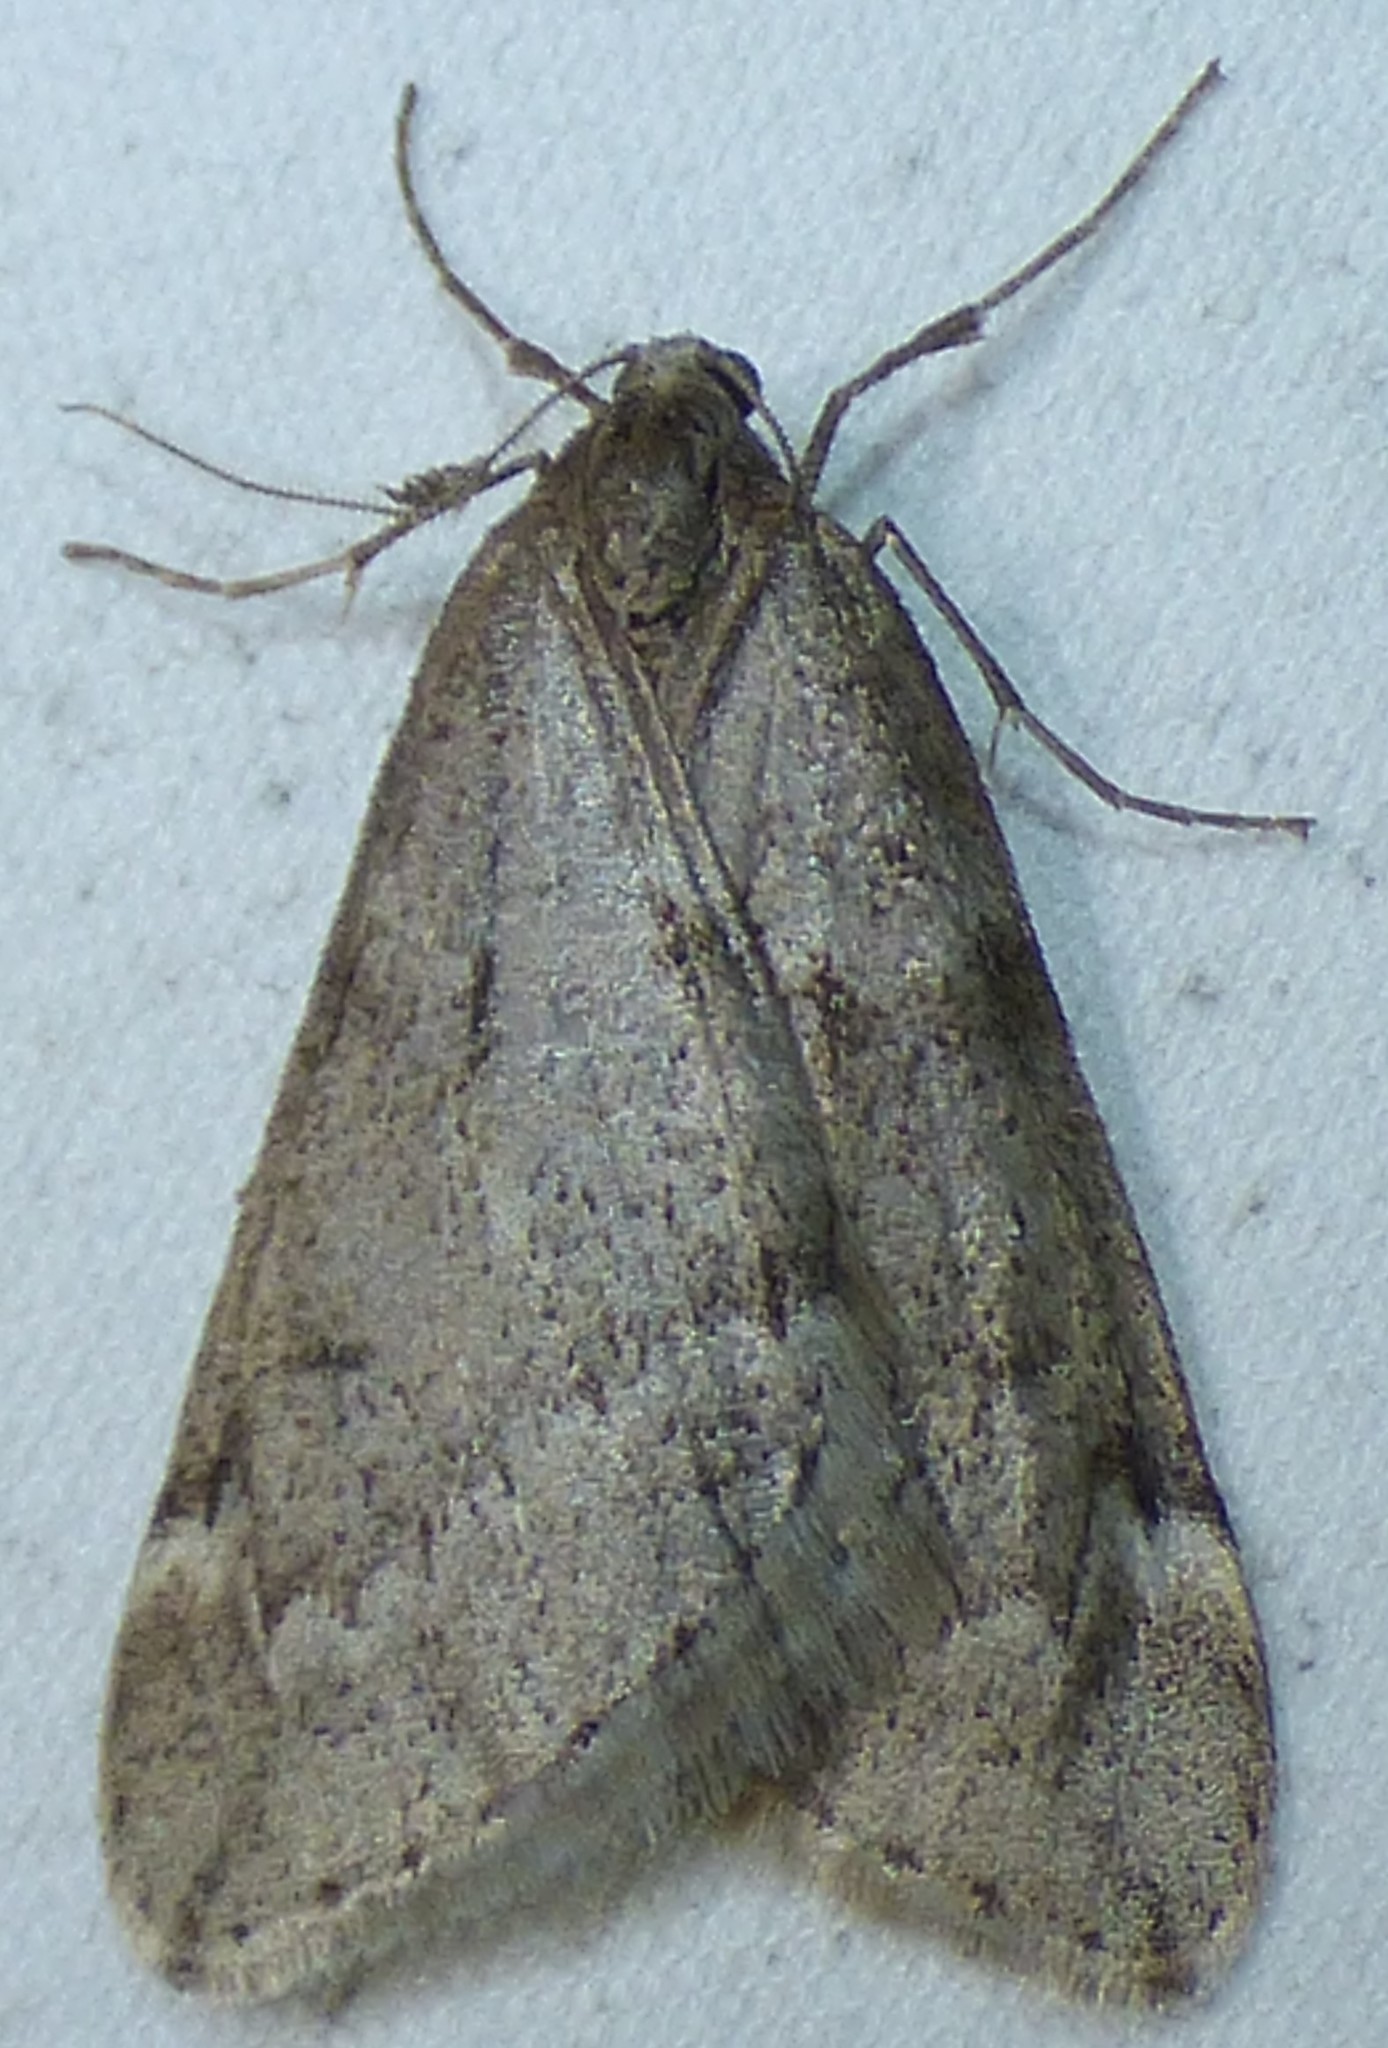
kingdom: Animalia
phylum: Arthropoda
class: Insecta
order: Lepidoptera
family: Geometridae
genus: Alsophila
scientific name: Alsophila pometaria
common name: Fall cankerworm
